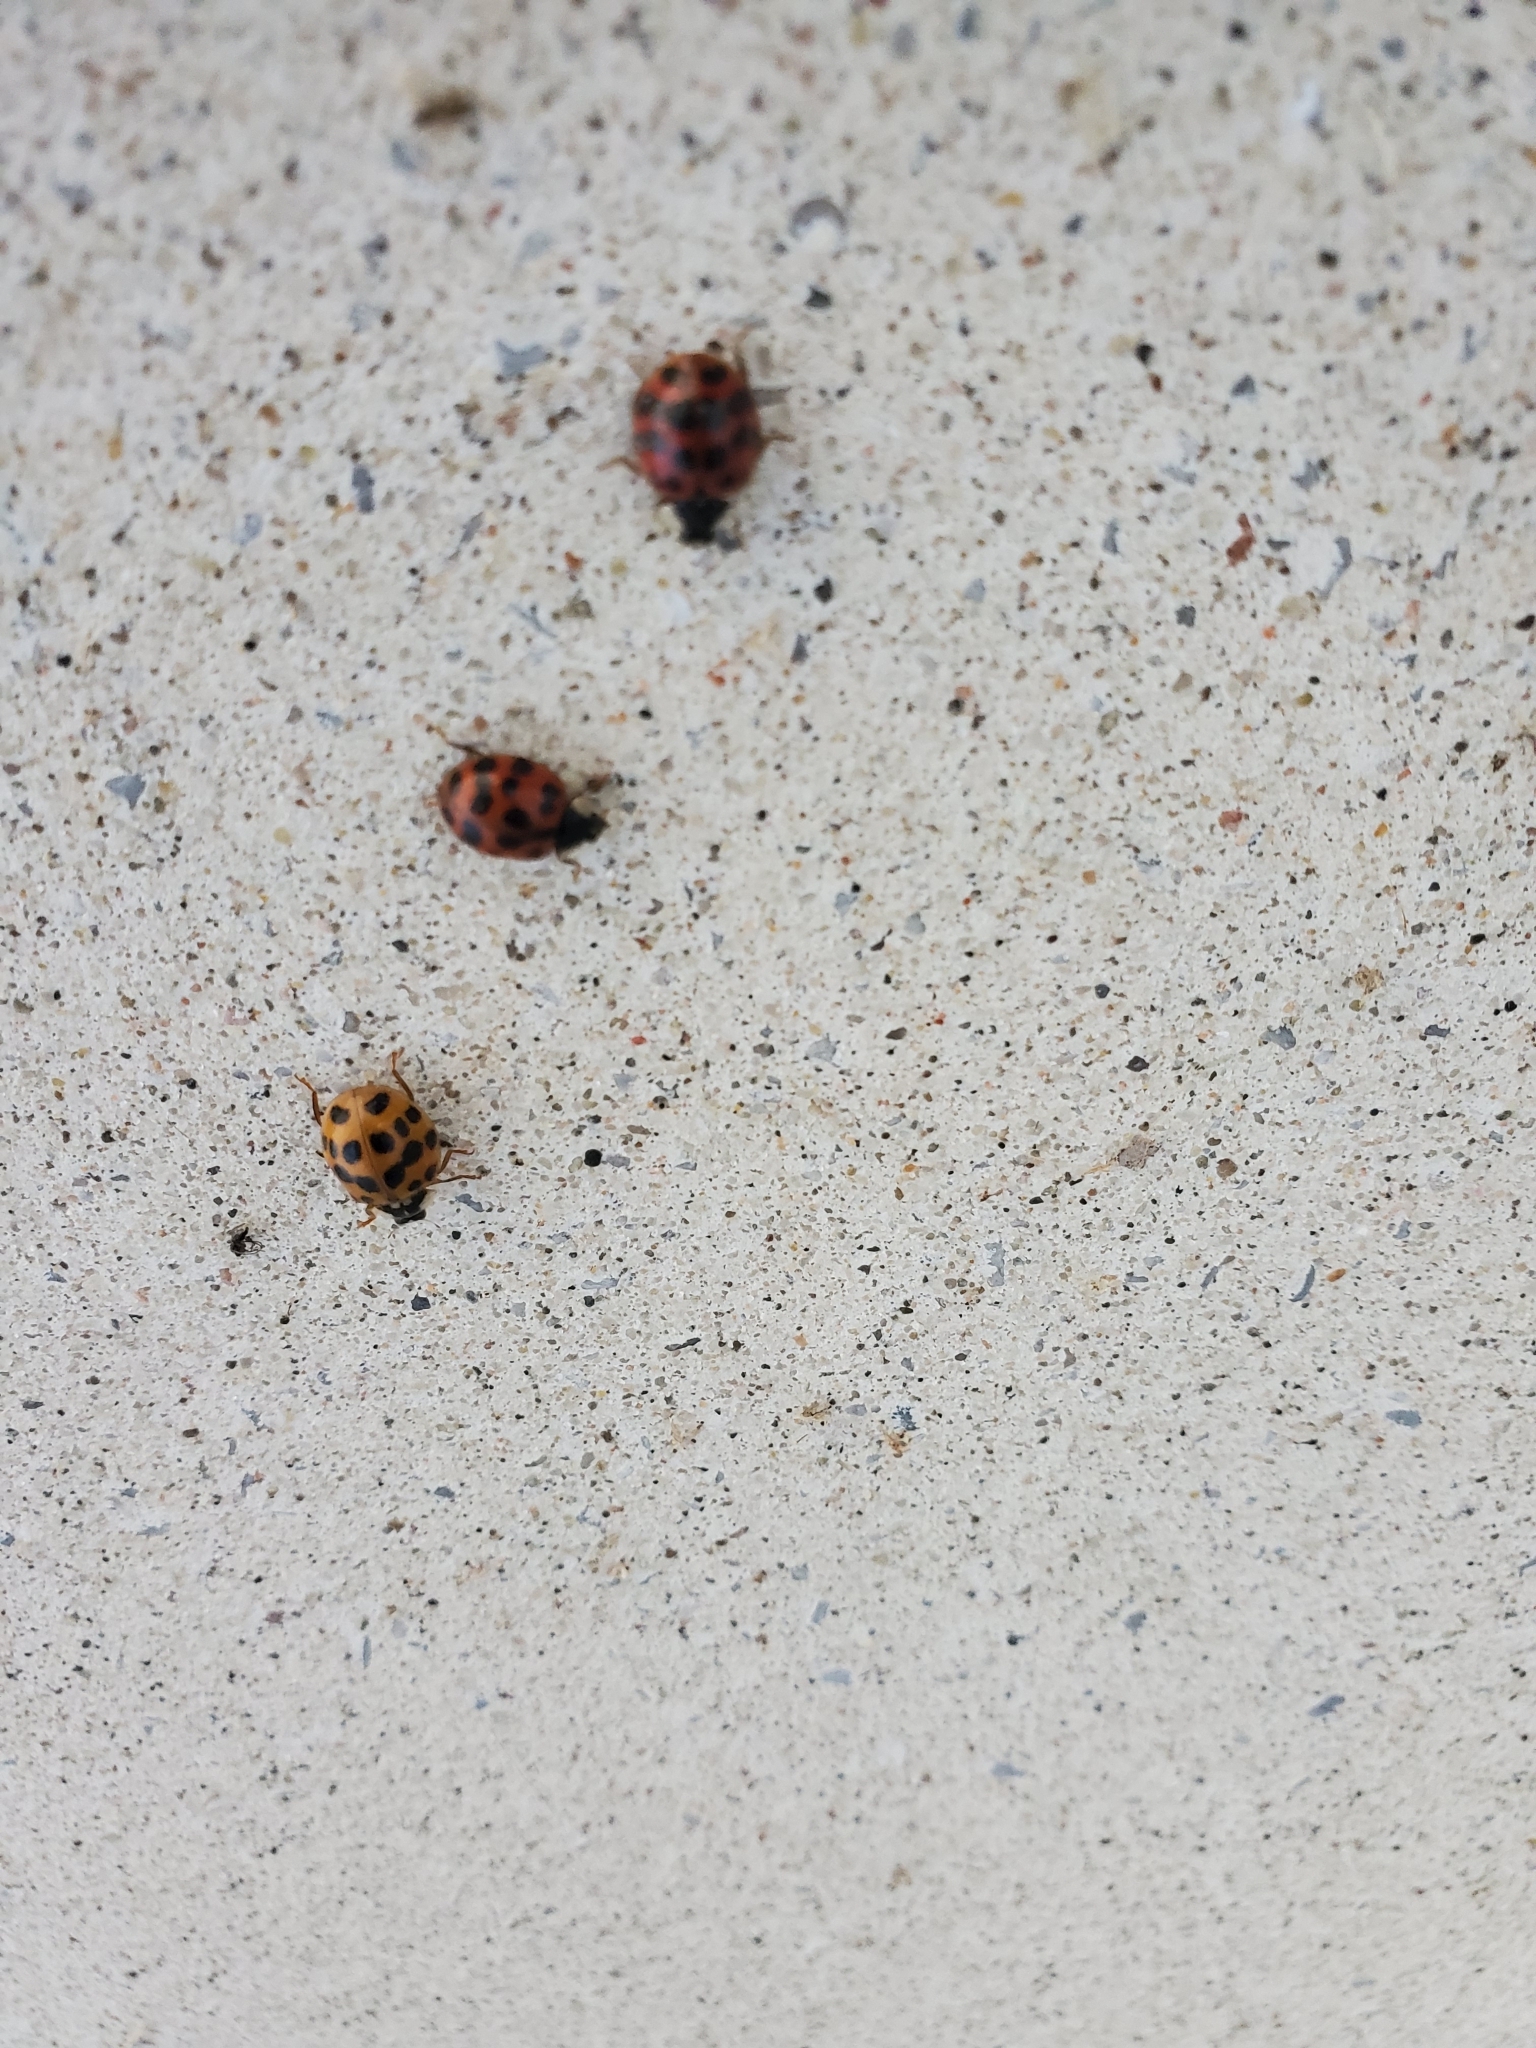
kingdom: Animalia
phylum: Arthropoda
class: Insecta
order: Coleoptera
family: Coccinellidae
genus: Harmonia
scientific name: Harmonia axyridis
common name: Harlequin ladybird
